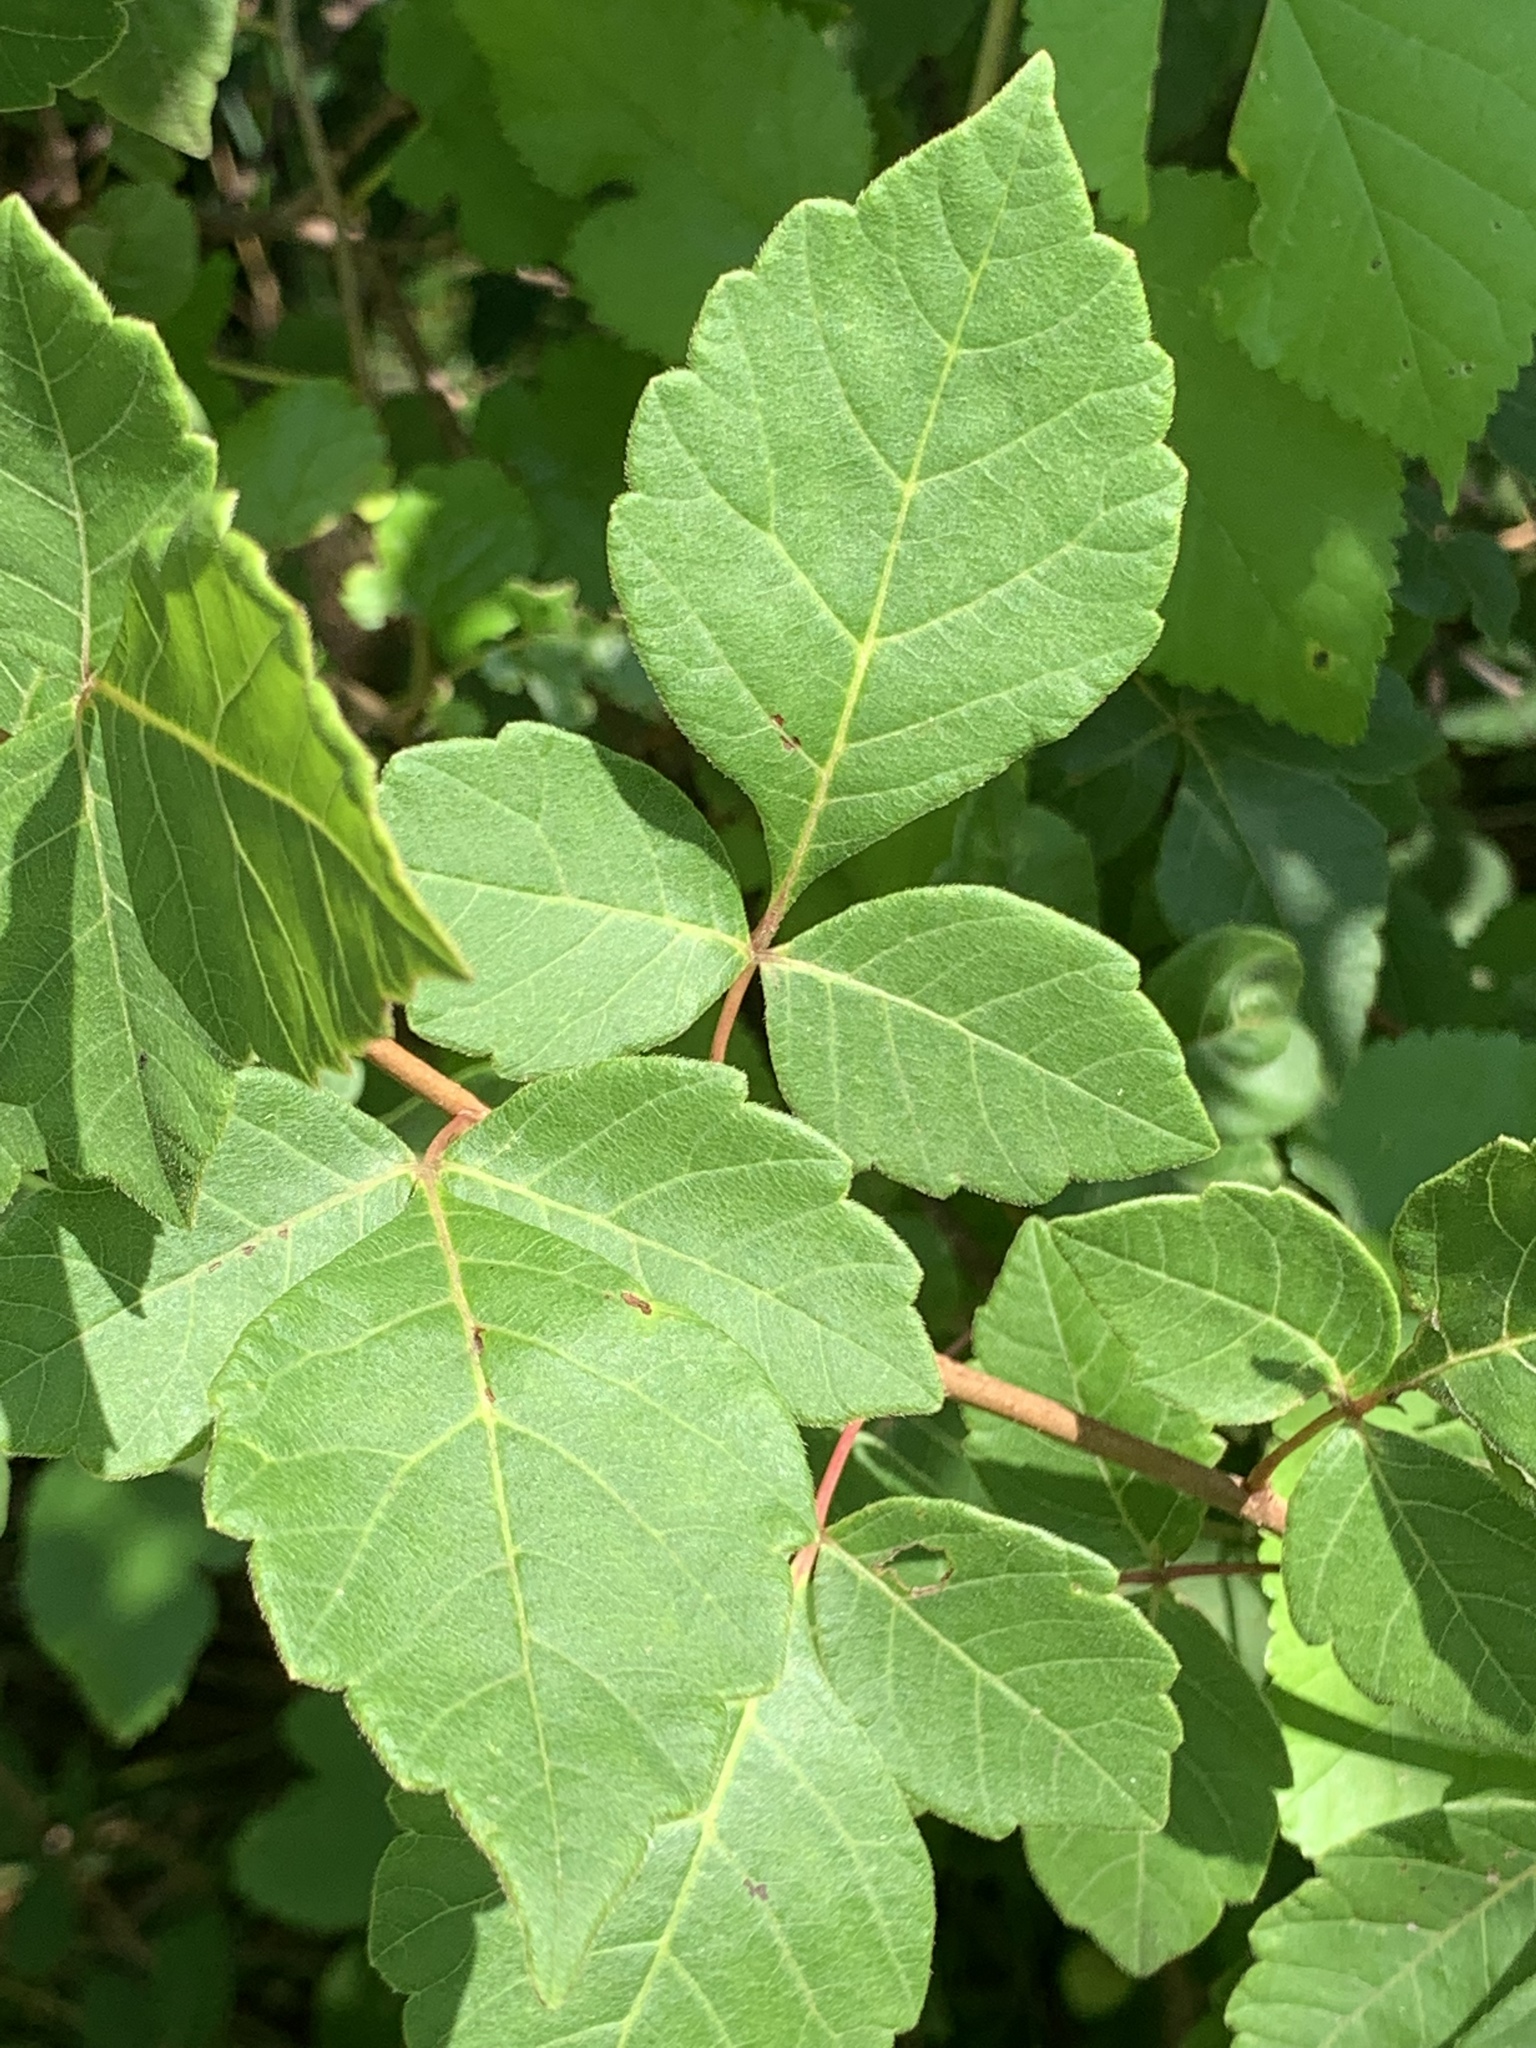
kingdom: Plantae
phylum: Tracheophyta
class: Magnoliopsida
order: Sapindales
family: Anacardiaceae
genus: Rhus
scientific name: Rhus aromatica
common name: Aromatic sumac
